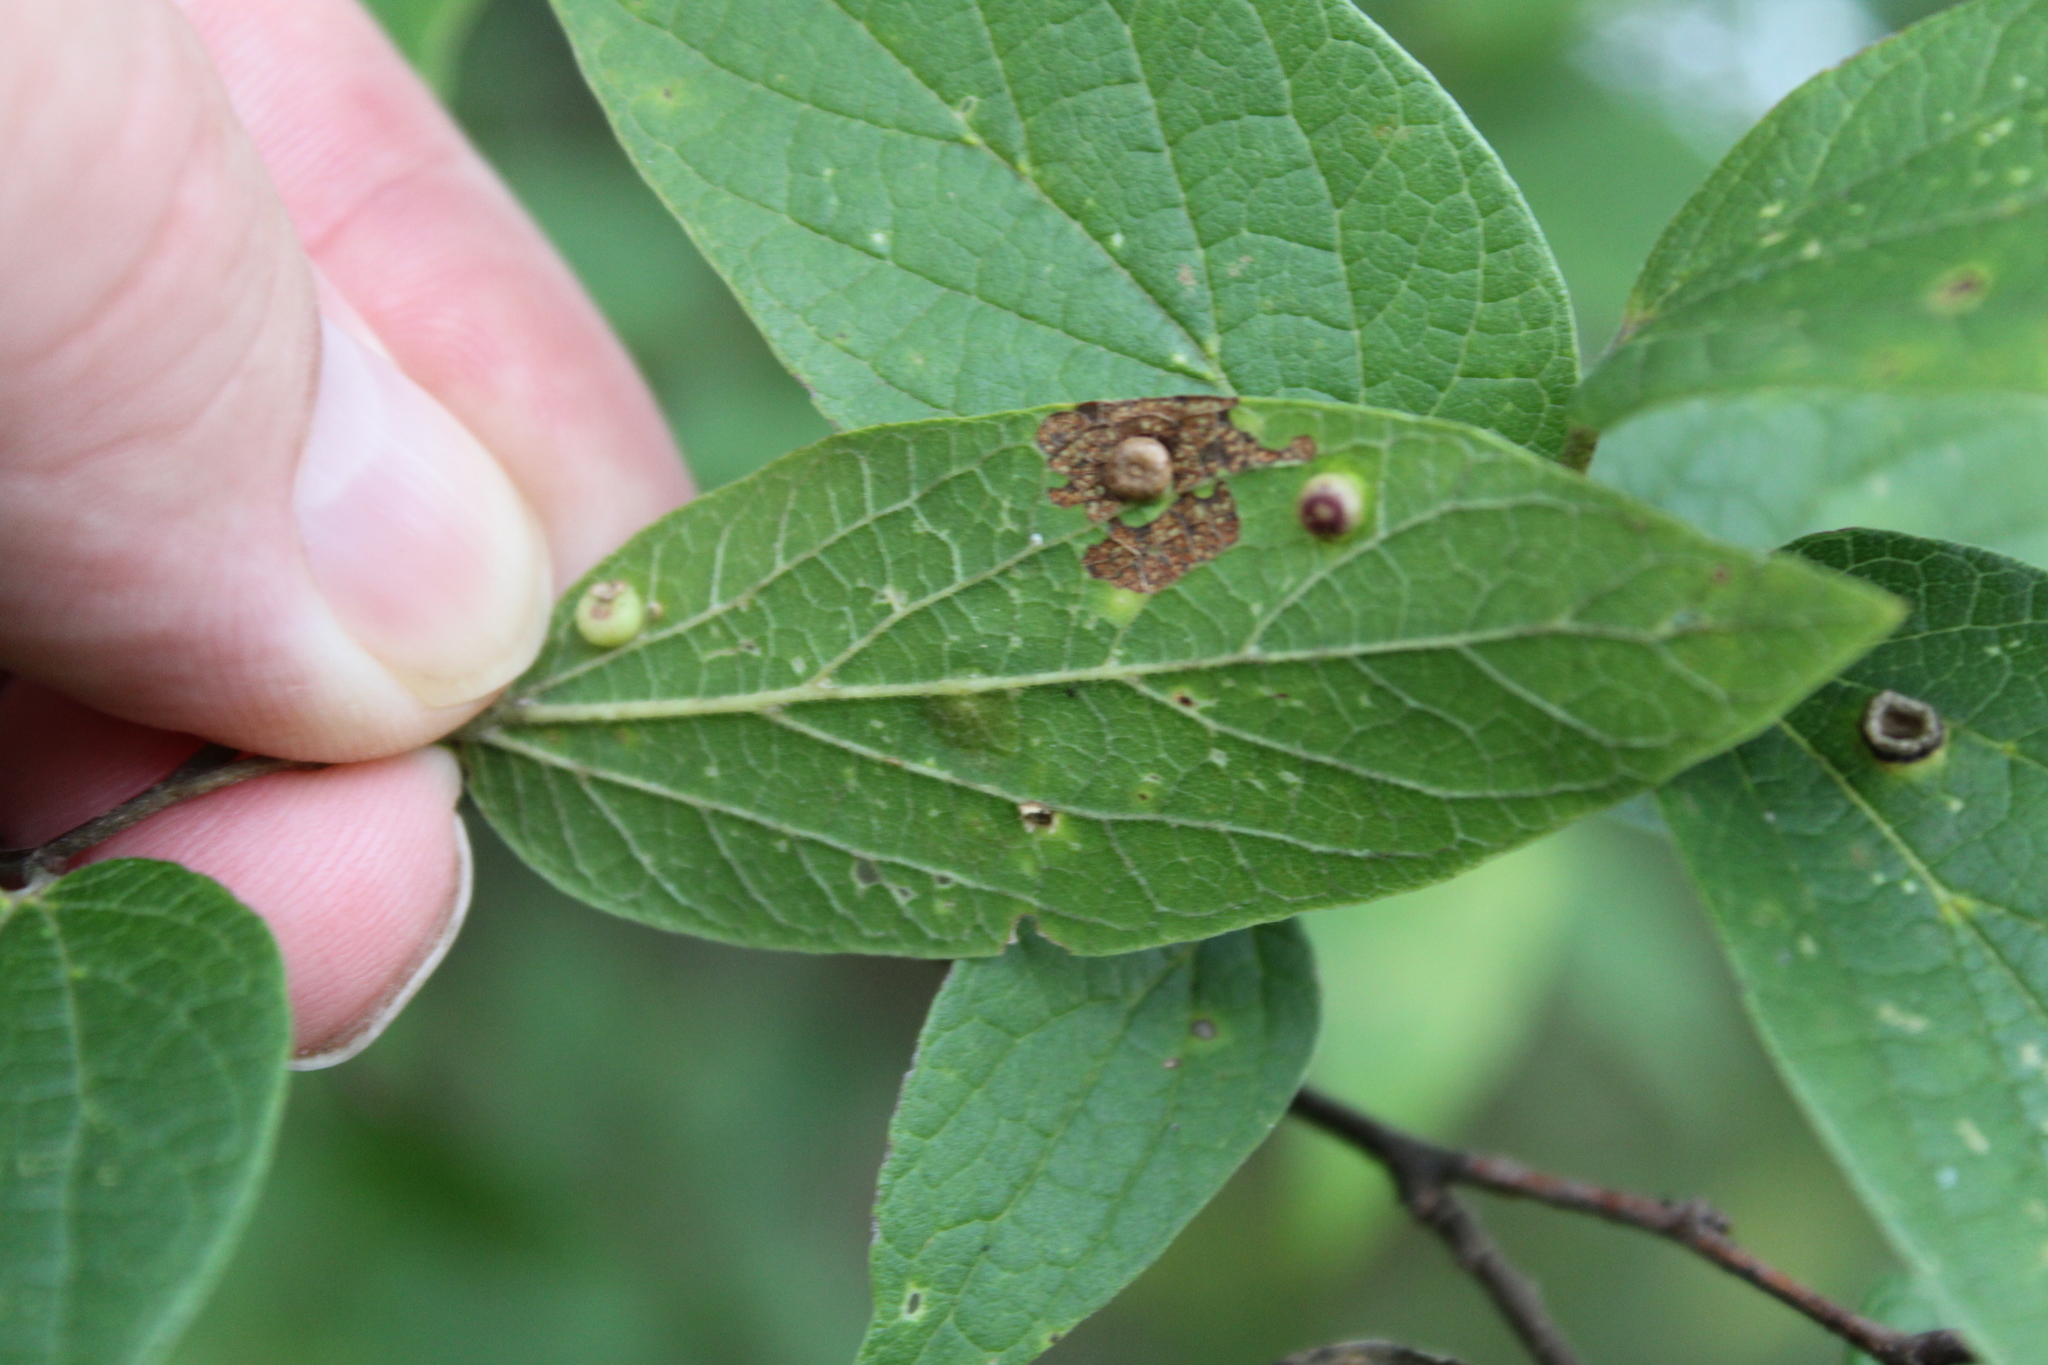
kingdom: Animalia
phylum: Arthropoda
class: Insecta
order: Hemiptera
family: Aphalaridae
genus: Pachypsylla
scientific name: Pachypsylla celtidismamma
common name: Hackberry nipplegall psyllid
